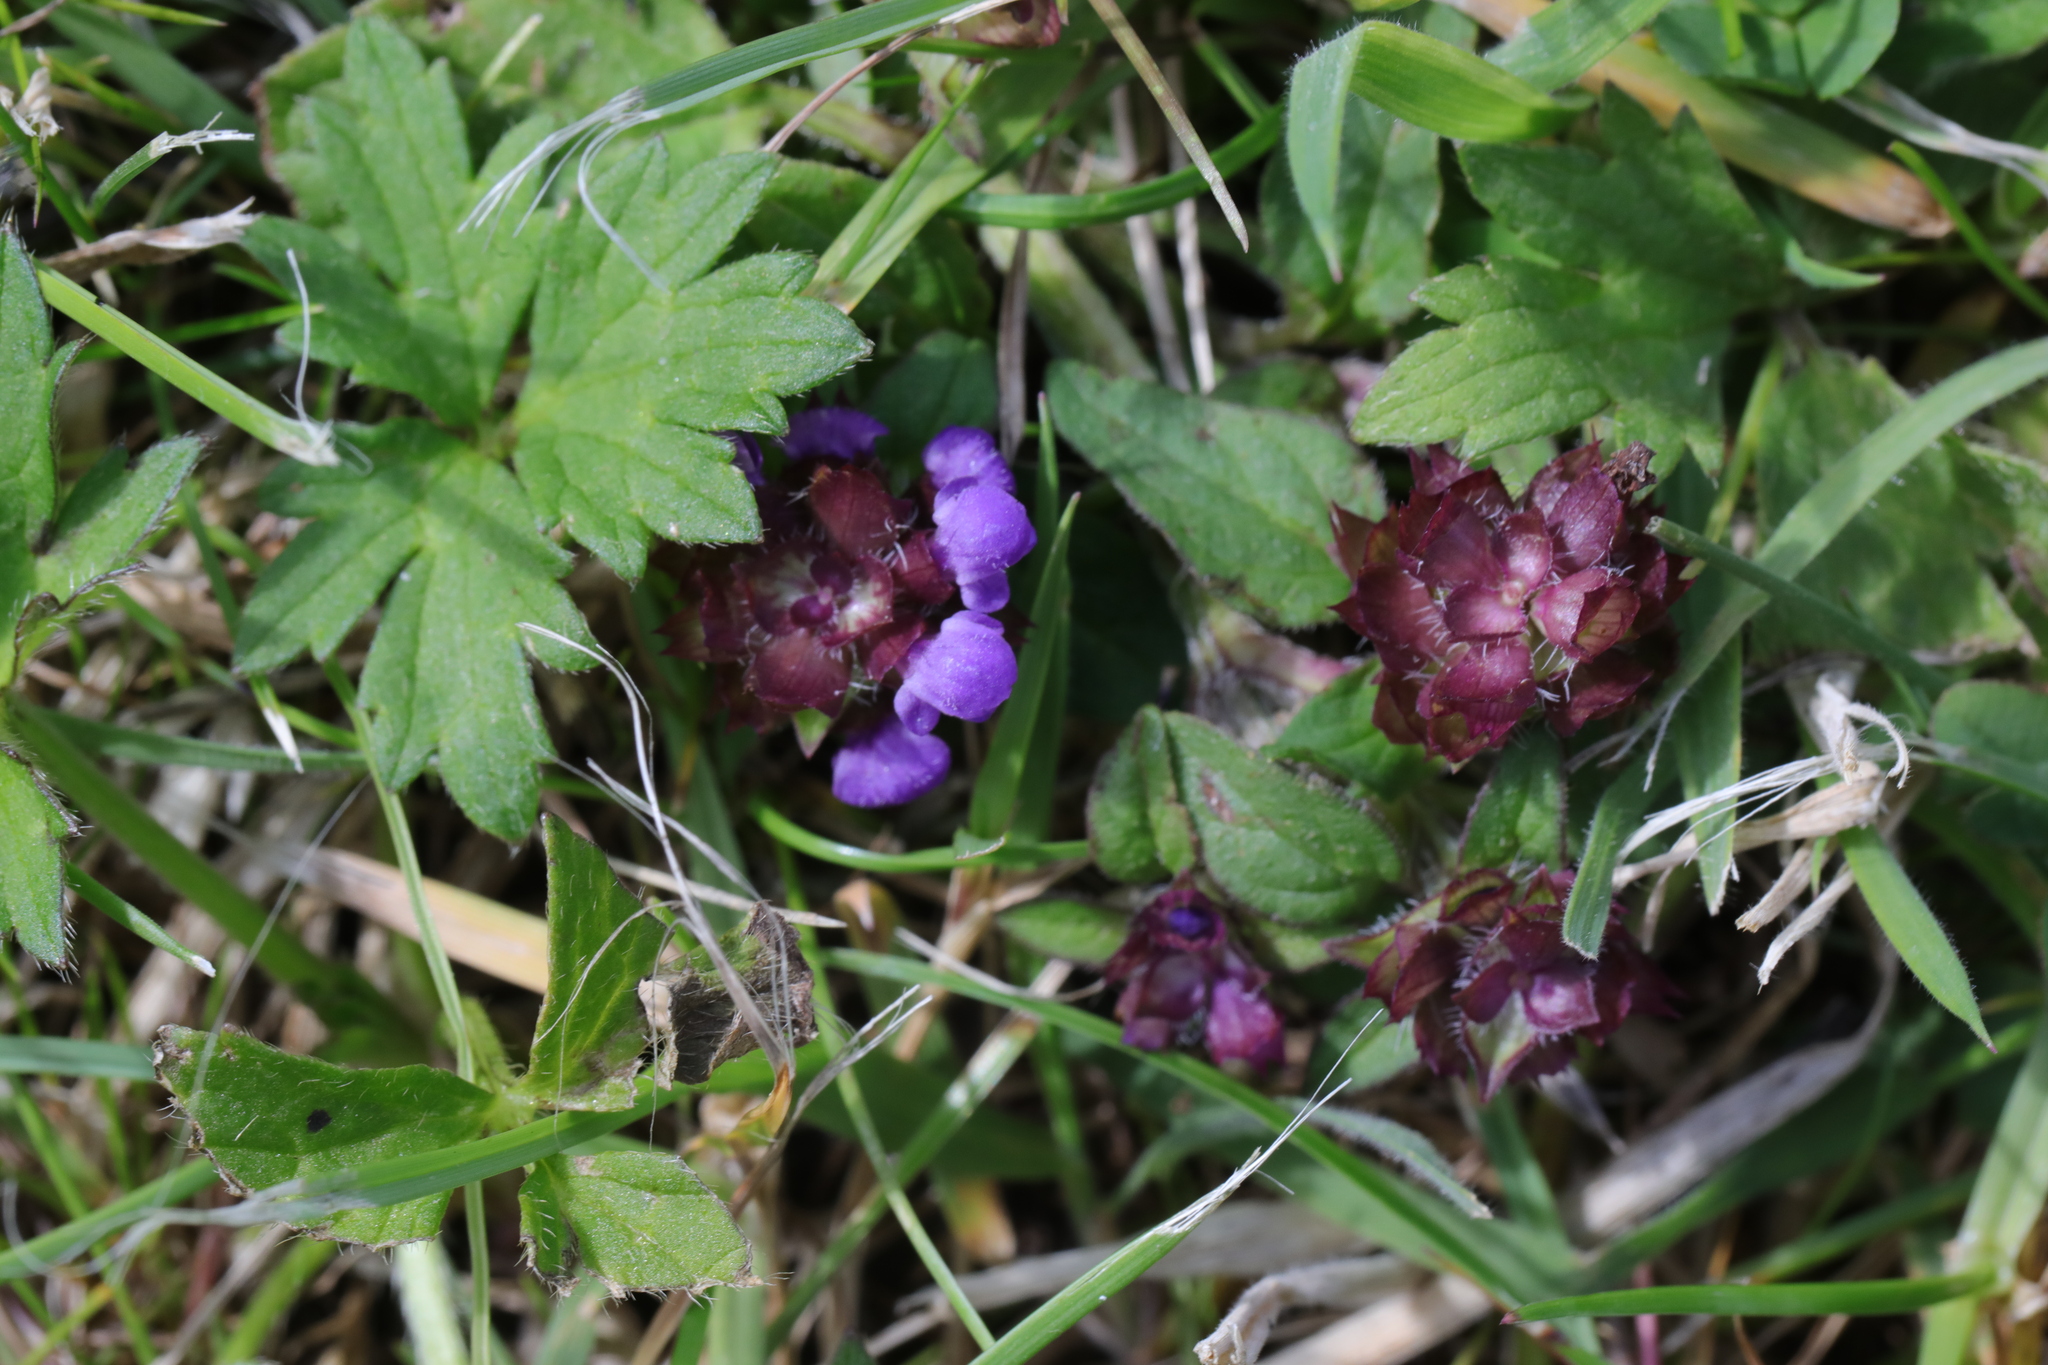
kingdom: Plantae
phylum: Tracheophyta
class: Magnoliopsida
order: Lamiales
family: Lamiaceae
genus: Prunella
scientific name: Prunella vulgaris
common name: Heal-all
